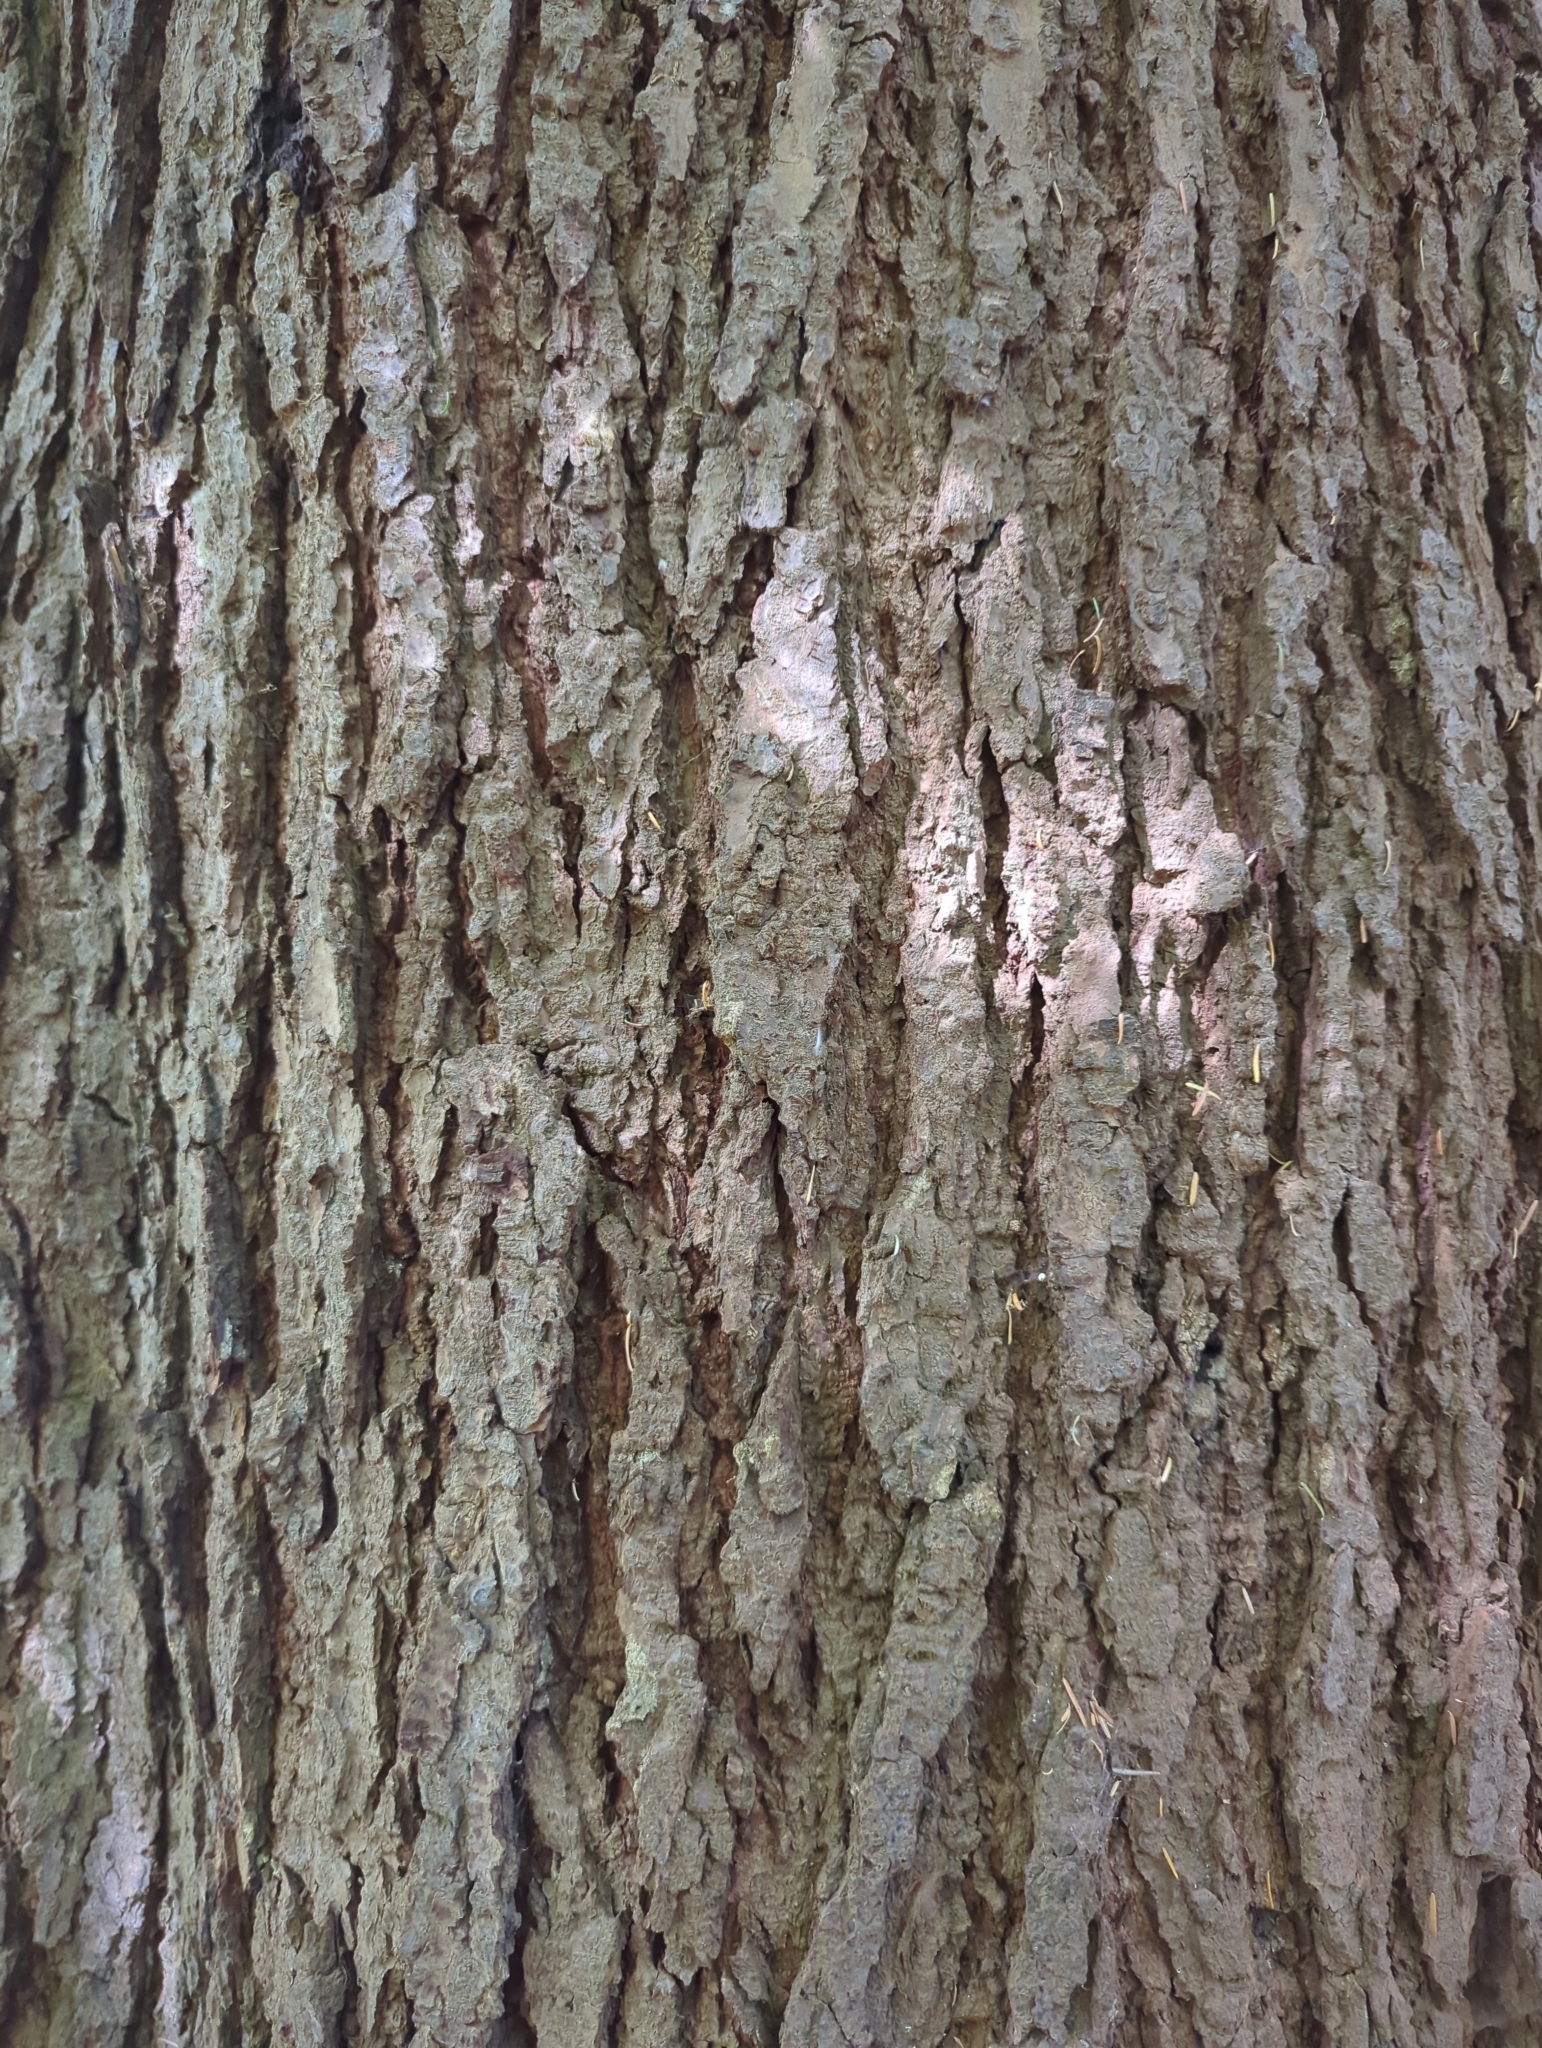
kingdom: Plantae
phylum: Tracheophyta
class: Pinopsida
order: Pinales
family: Pinaceae
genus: Pseudotsuga
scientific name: Pseudotsuga menziesii
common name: Douglas fir
